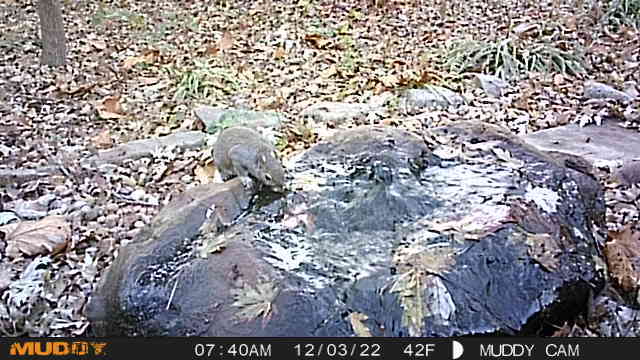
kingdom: Animalia
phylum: Chordata
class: Mammalia
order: Rodentia
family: Sciuridae
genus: Sciurus
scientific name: Sciurus carolinensis
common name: Eastern gray squirrel
